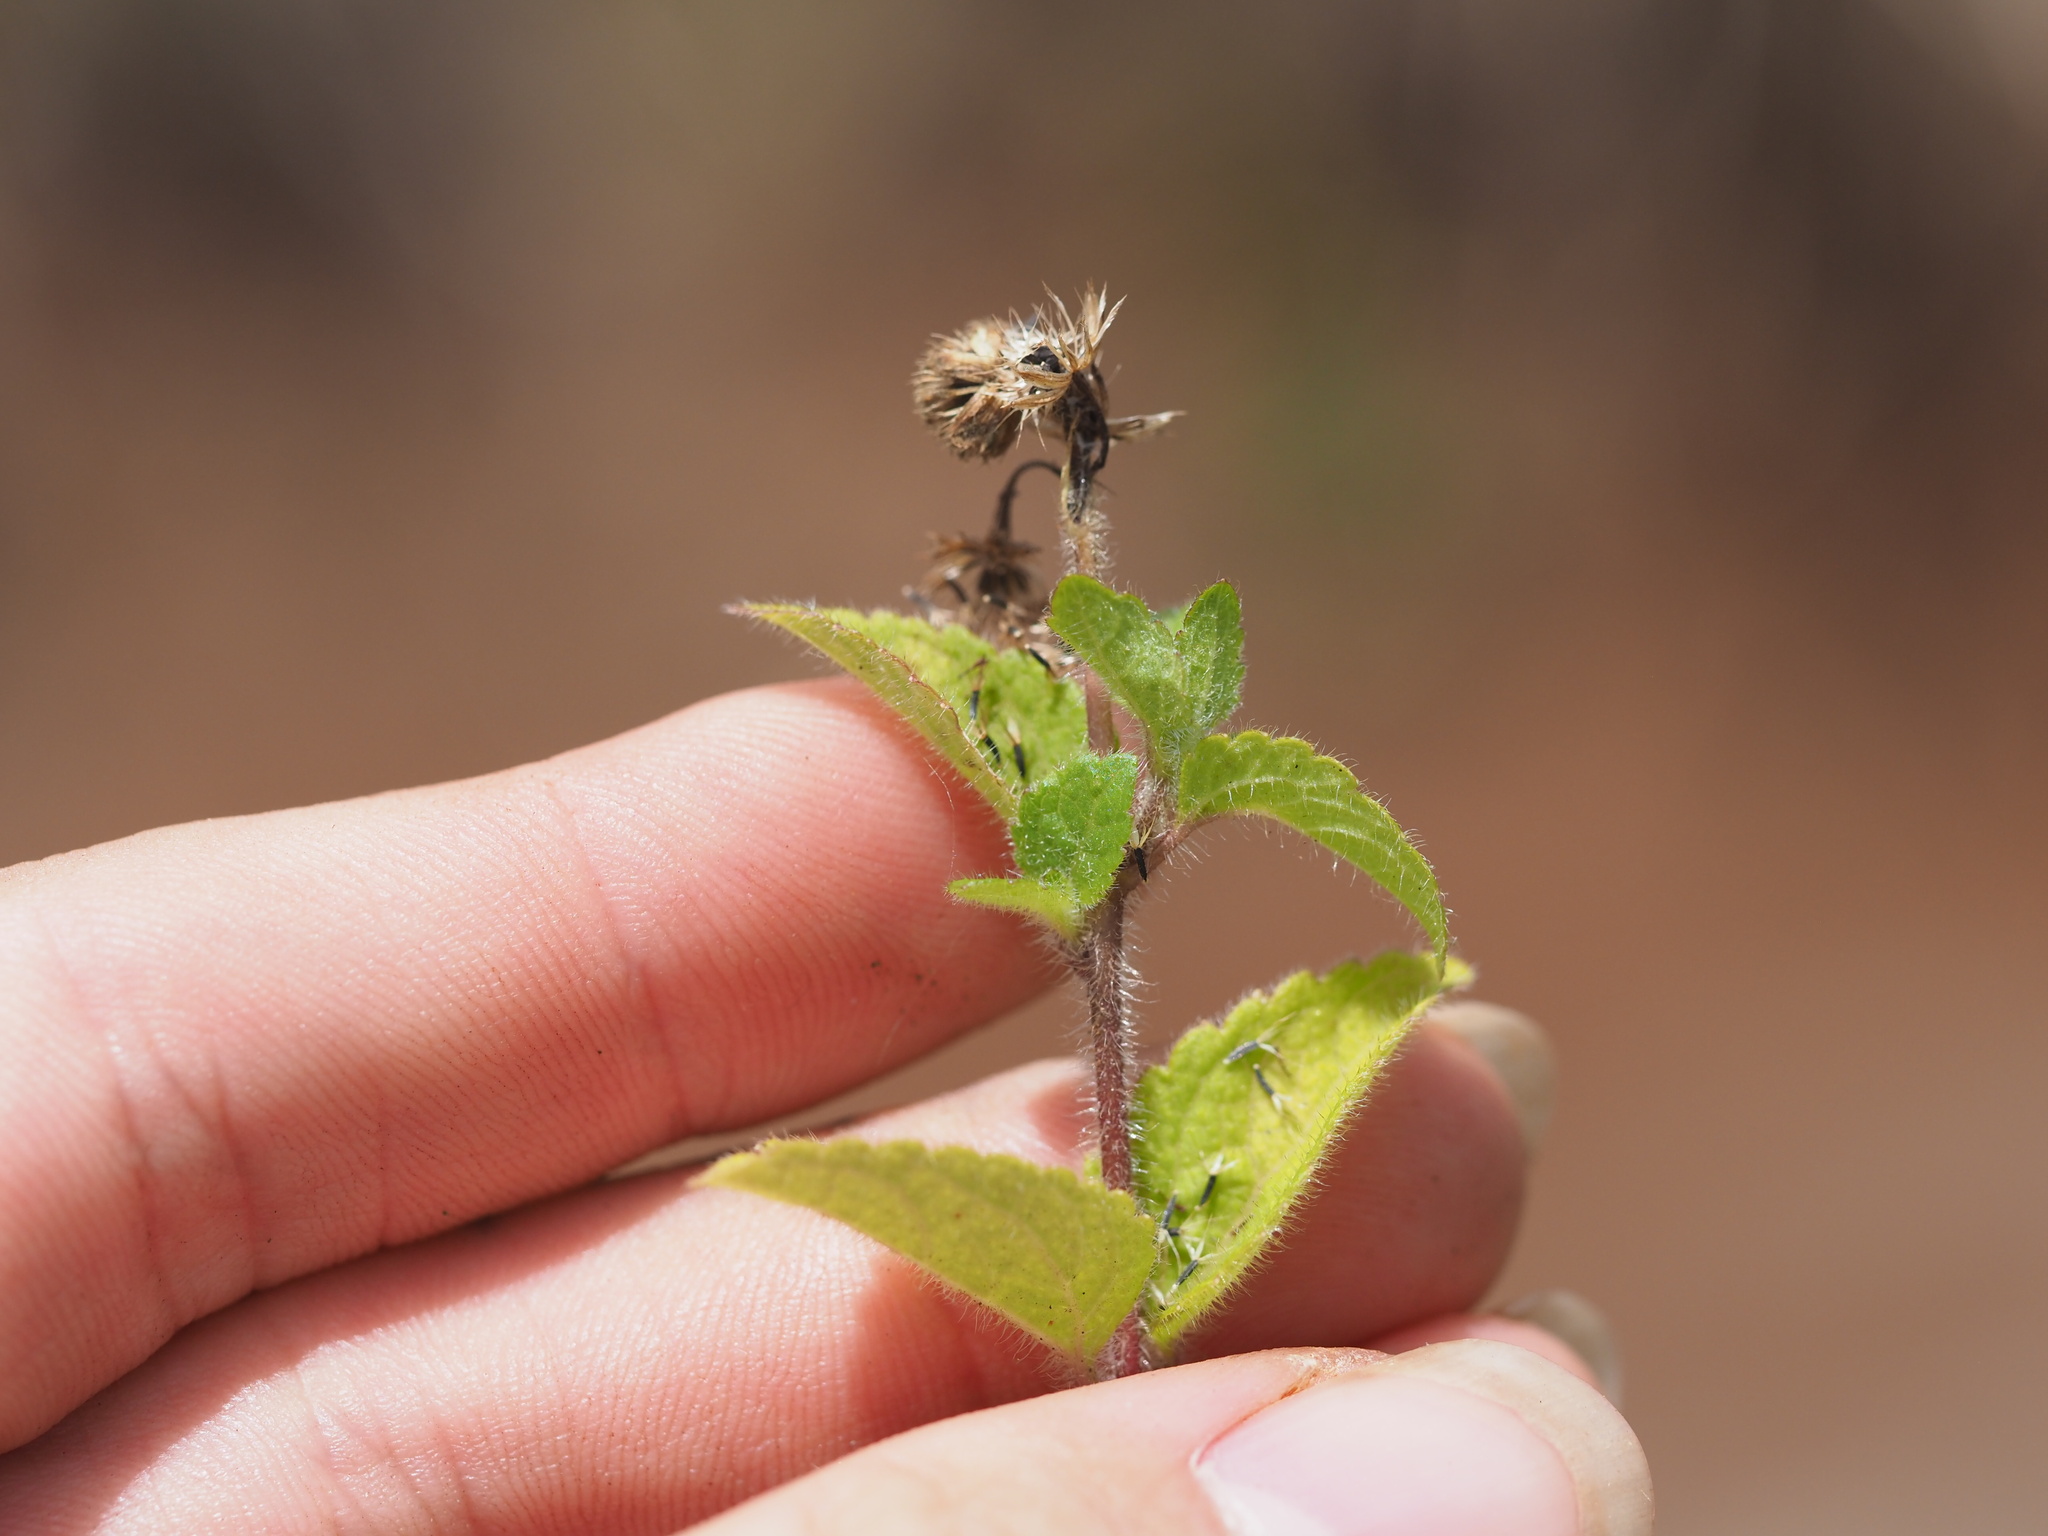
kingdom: Plantae
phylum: Tracheophyta
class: Magnoliopsida
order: Asterales
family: Asteraceae
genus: Ageratum
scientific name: Ageratum conyzoides
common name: Tropical whiteweed
